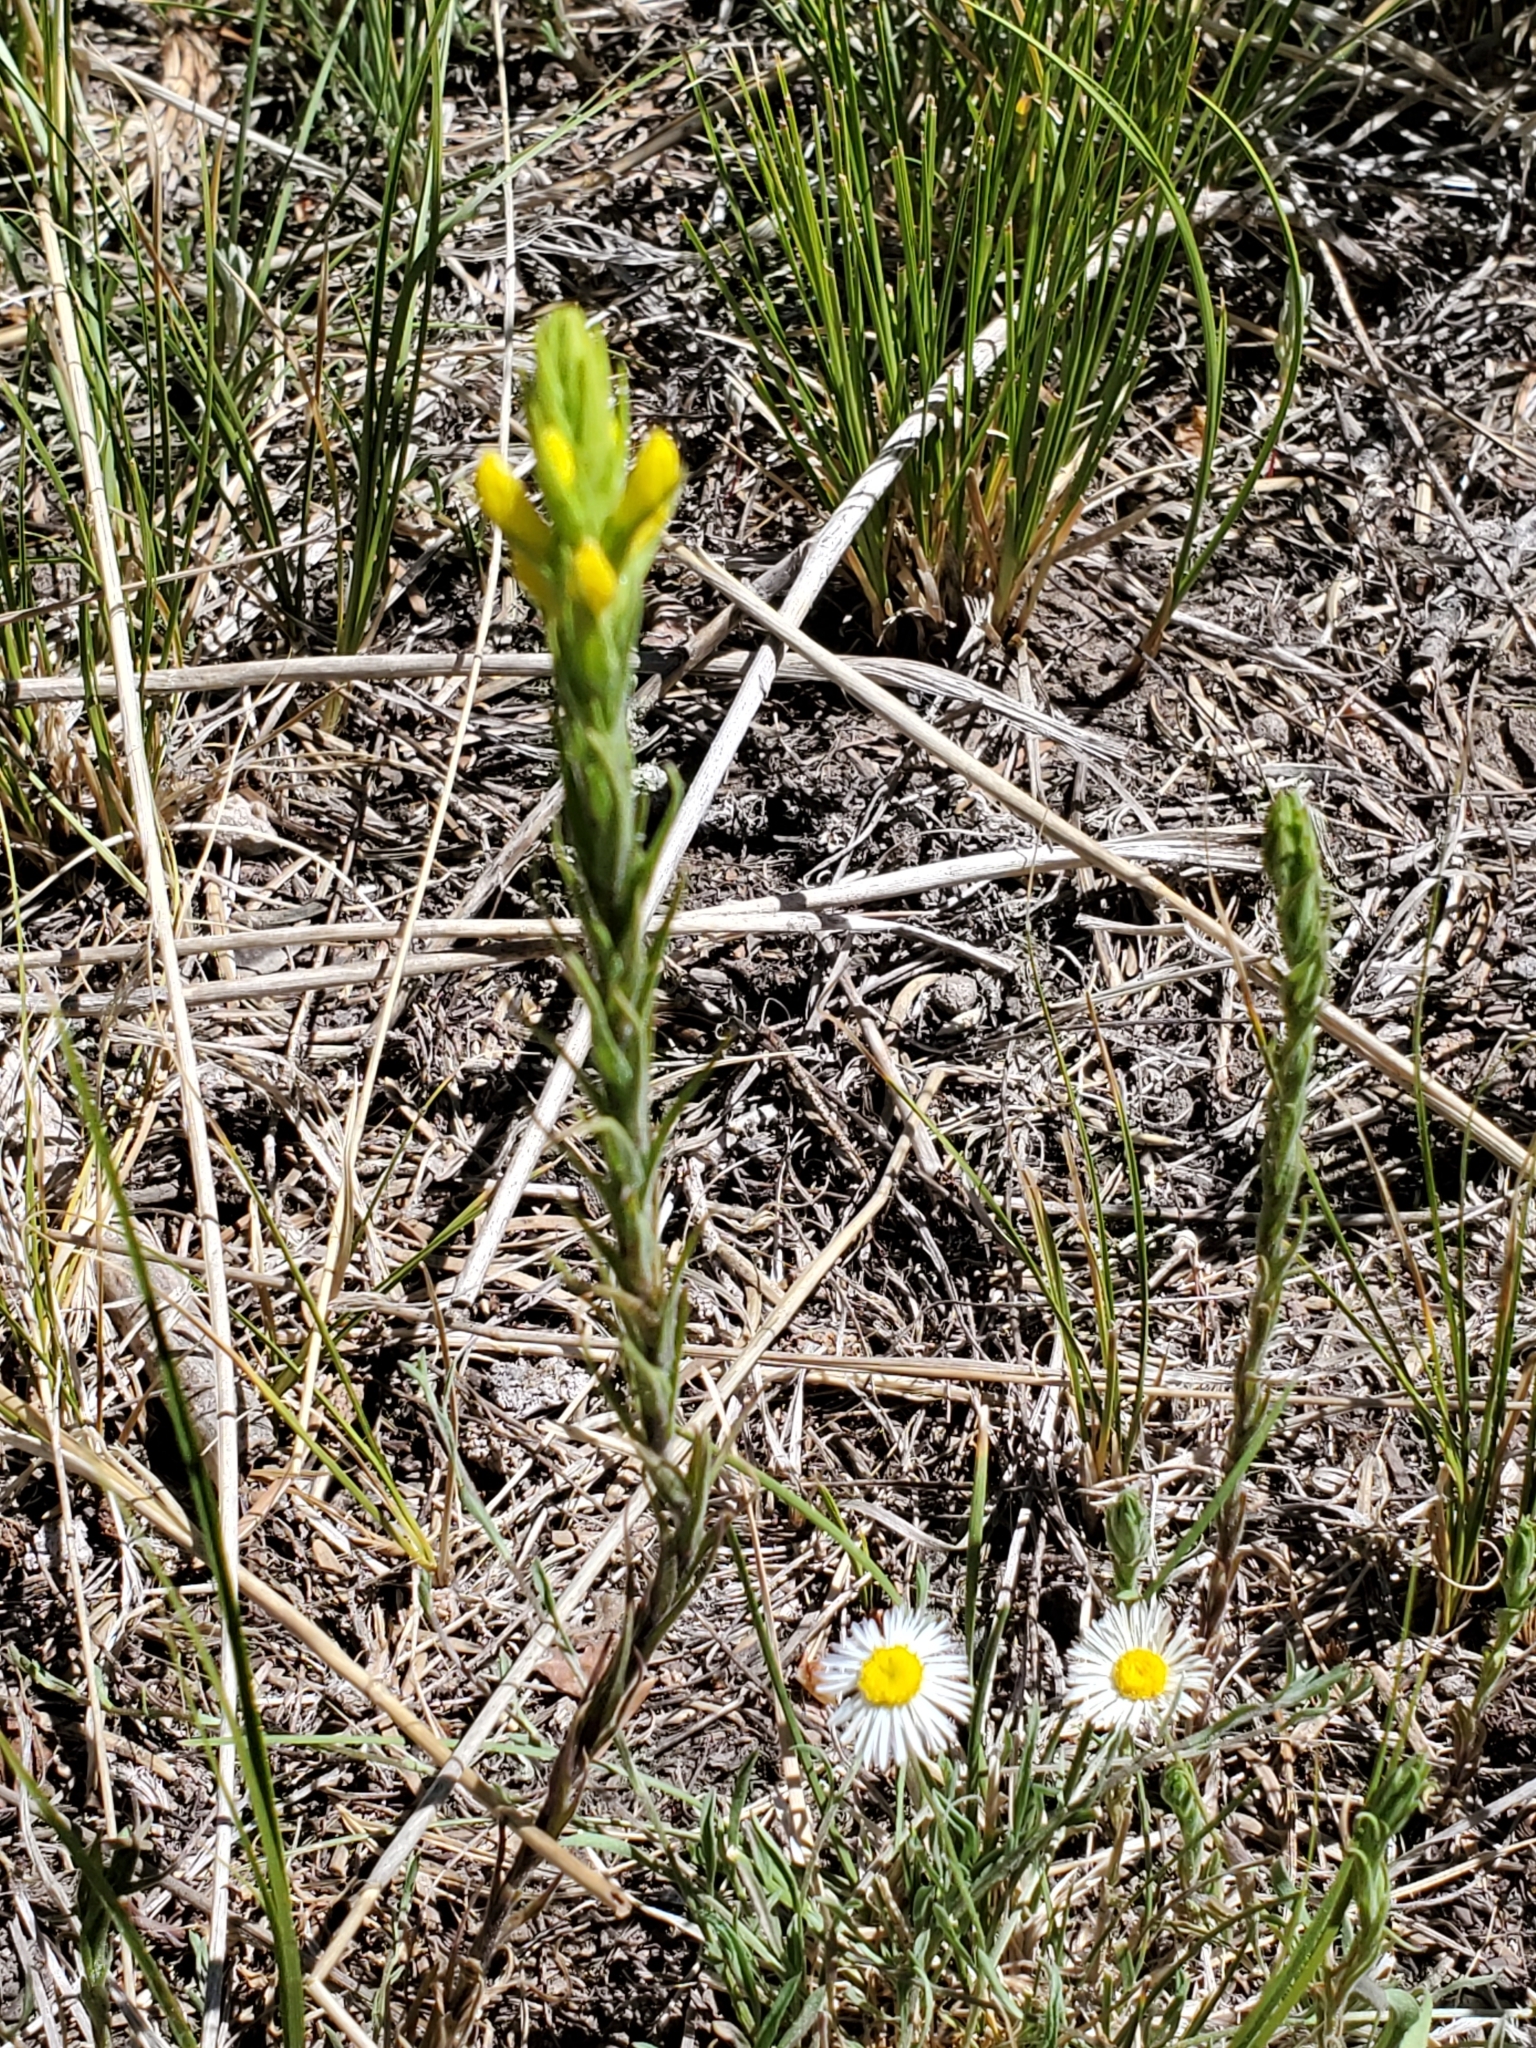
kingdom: Plantae
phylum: Tracheophyta
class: Magnoliopsida
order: Lamiales
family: Orobanchaceae
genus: Orthocarpus
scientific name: Orthocarpus luteus
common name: Golden-tongue owl's-clover
